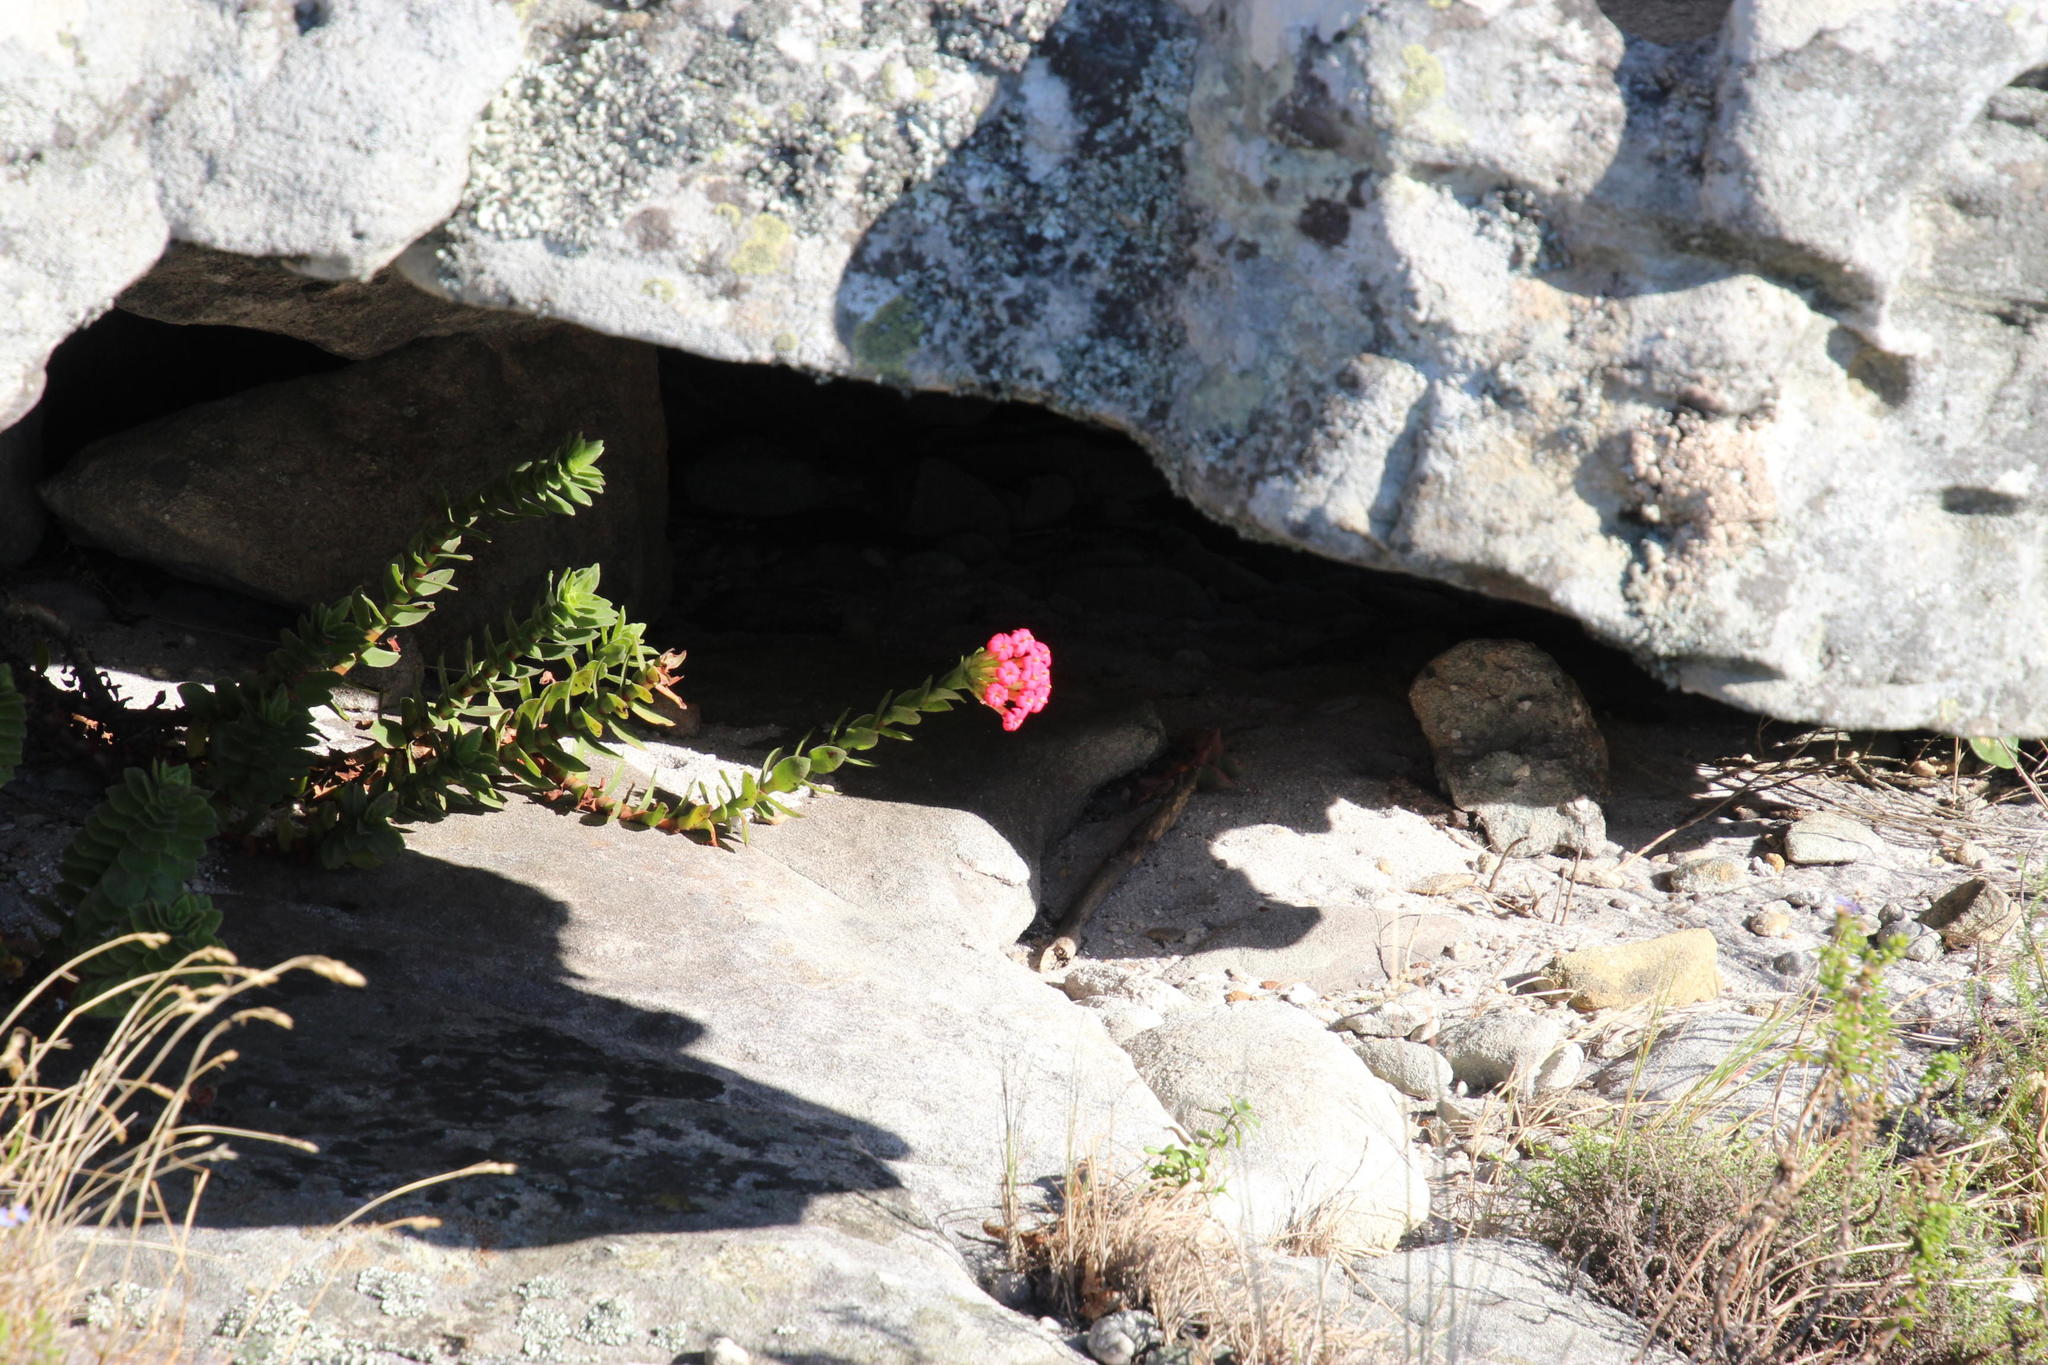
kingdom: Plantae
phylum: Tracheophyta
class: Magnoliopsida
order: Saxifragales
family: Crassulaceae
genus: Crassula
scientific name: Crassula coccinea
